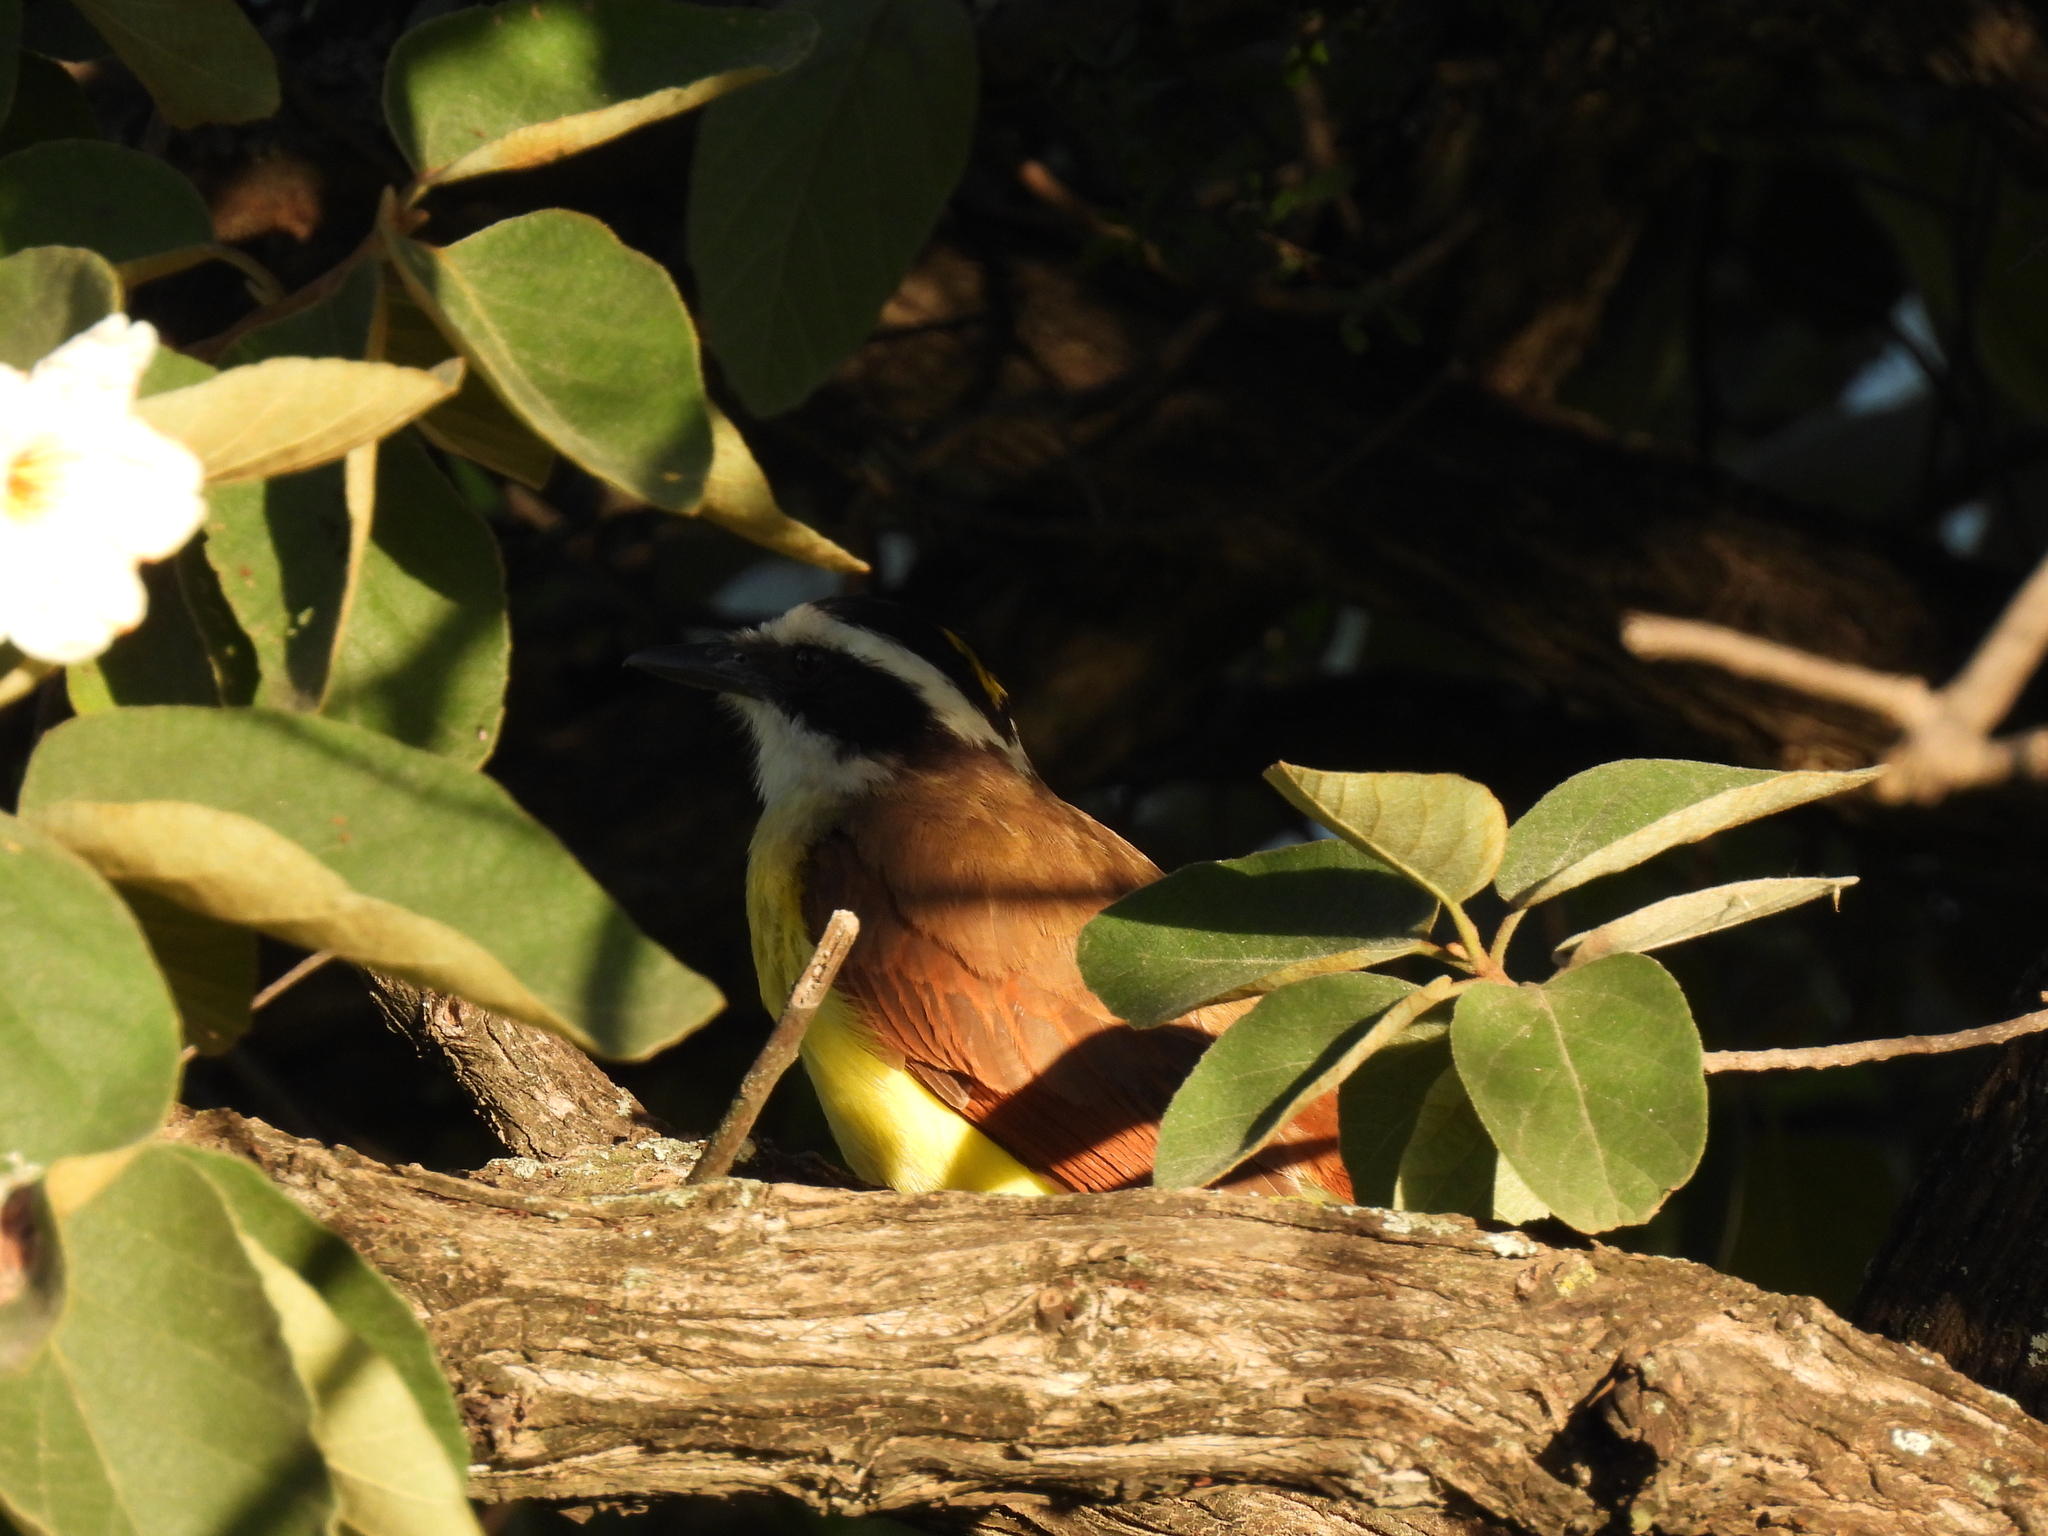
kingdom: Animalia
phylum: Chordata
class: Aves
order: Passeriformes
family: Tyrannidae
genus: Pitangus
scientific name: Pitangus sulphuratus
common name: Great kiskadee
